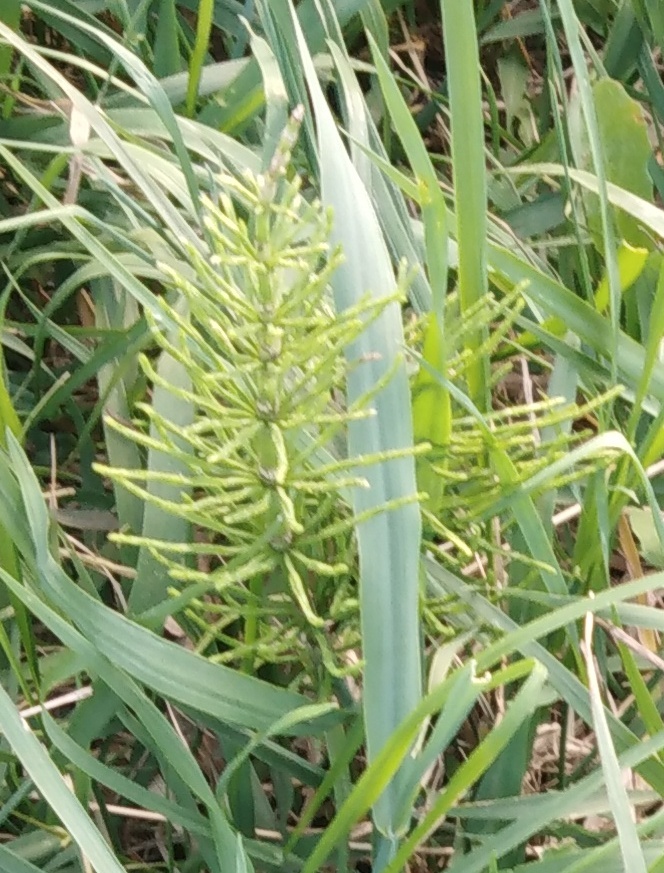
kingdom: Plantae
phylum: Tracheophyta
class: Polypodiopsida
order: Equisetales
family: Equisetaceae
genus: Equisetum
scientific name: Equisetum arvense
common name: Field horsetail
